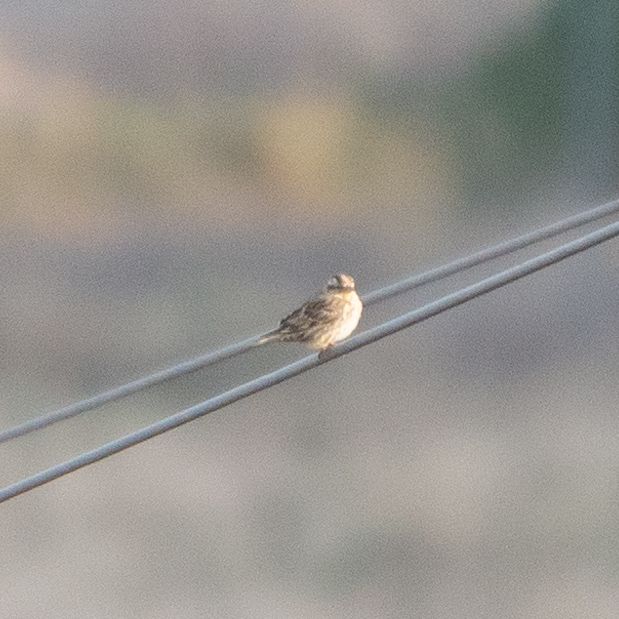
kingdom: Animalia
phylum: Chordata
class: Aves
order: Passeriformes
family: Passeridae
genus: Petronia
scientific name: Petronia petronia
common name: Rock sparrow
